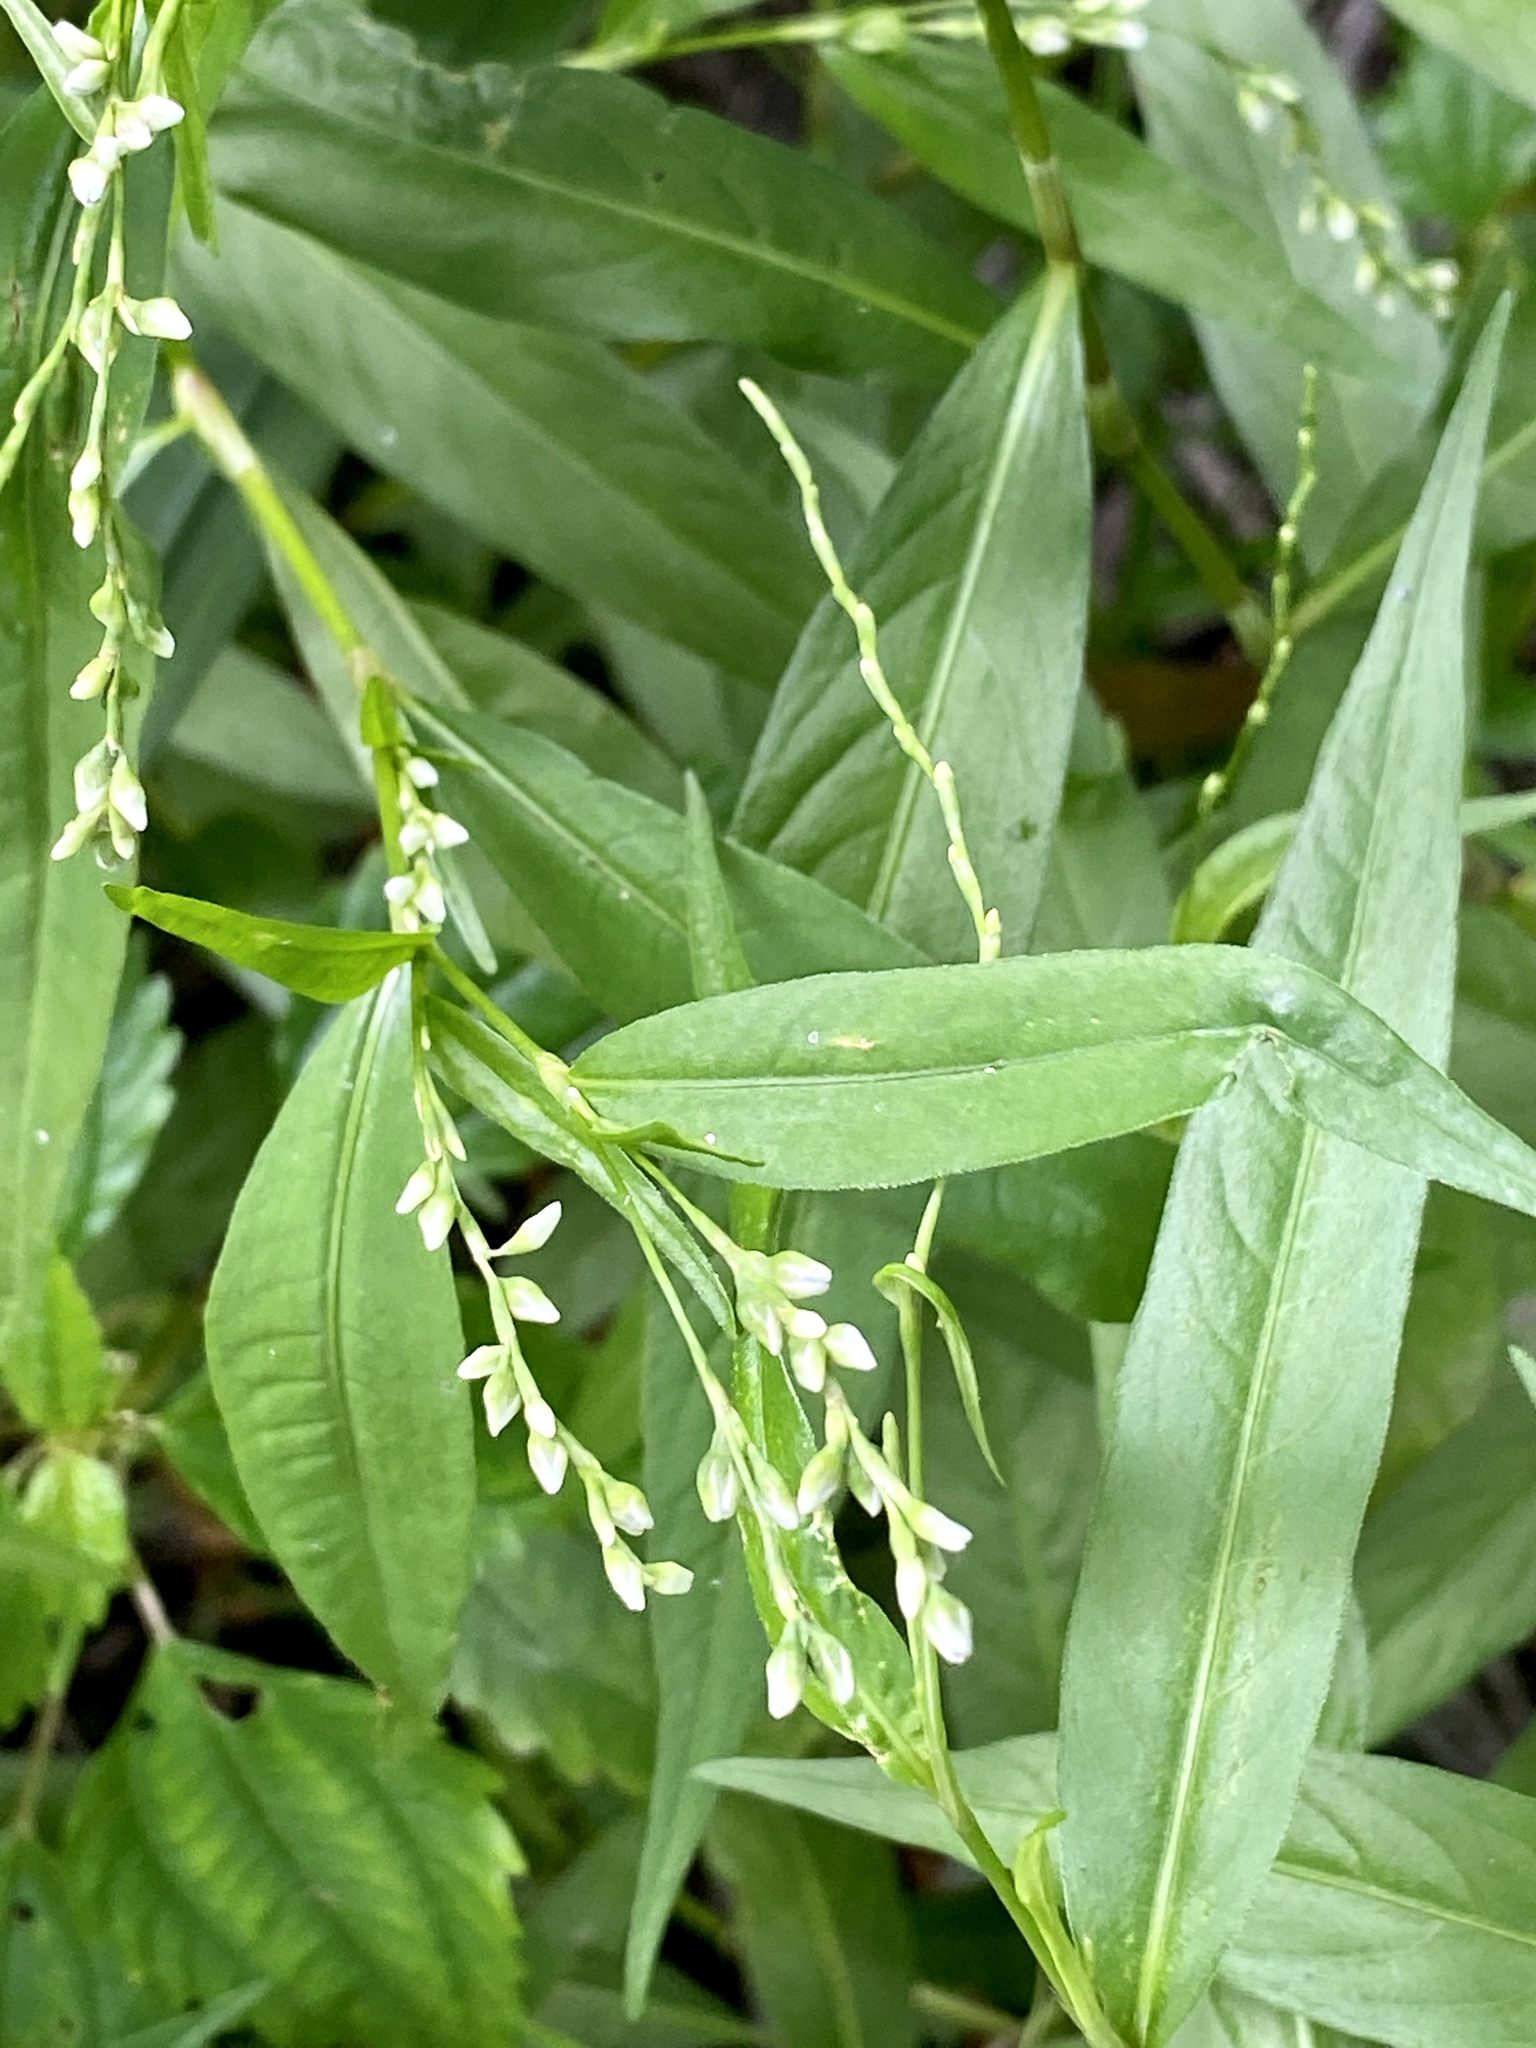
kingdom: Plantae
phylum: Tracheophyta
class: Magnoliopsida
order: Caryophyllales
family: Polygonaceae
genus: Persicaria
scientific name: Persicaria punctata
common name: Dotted smartweed
